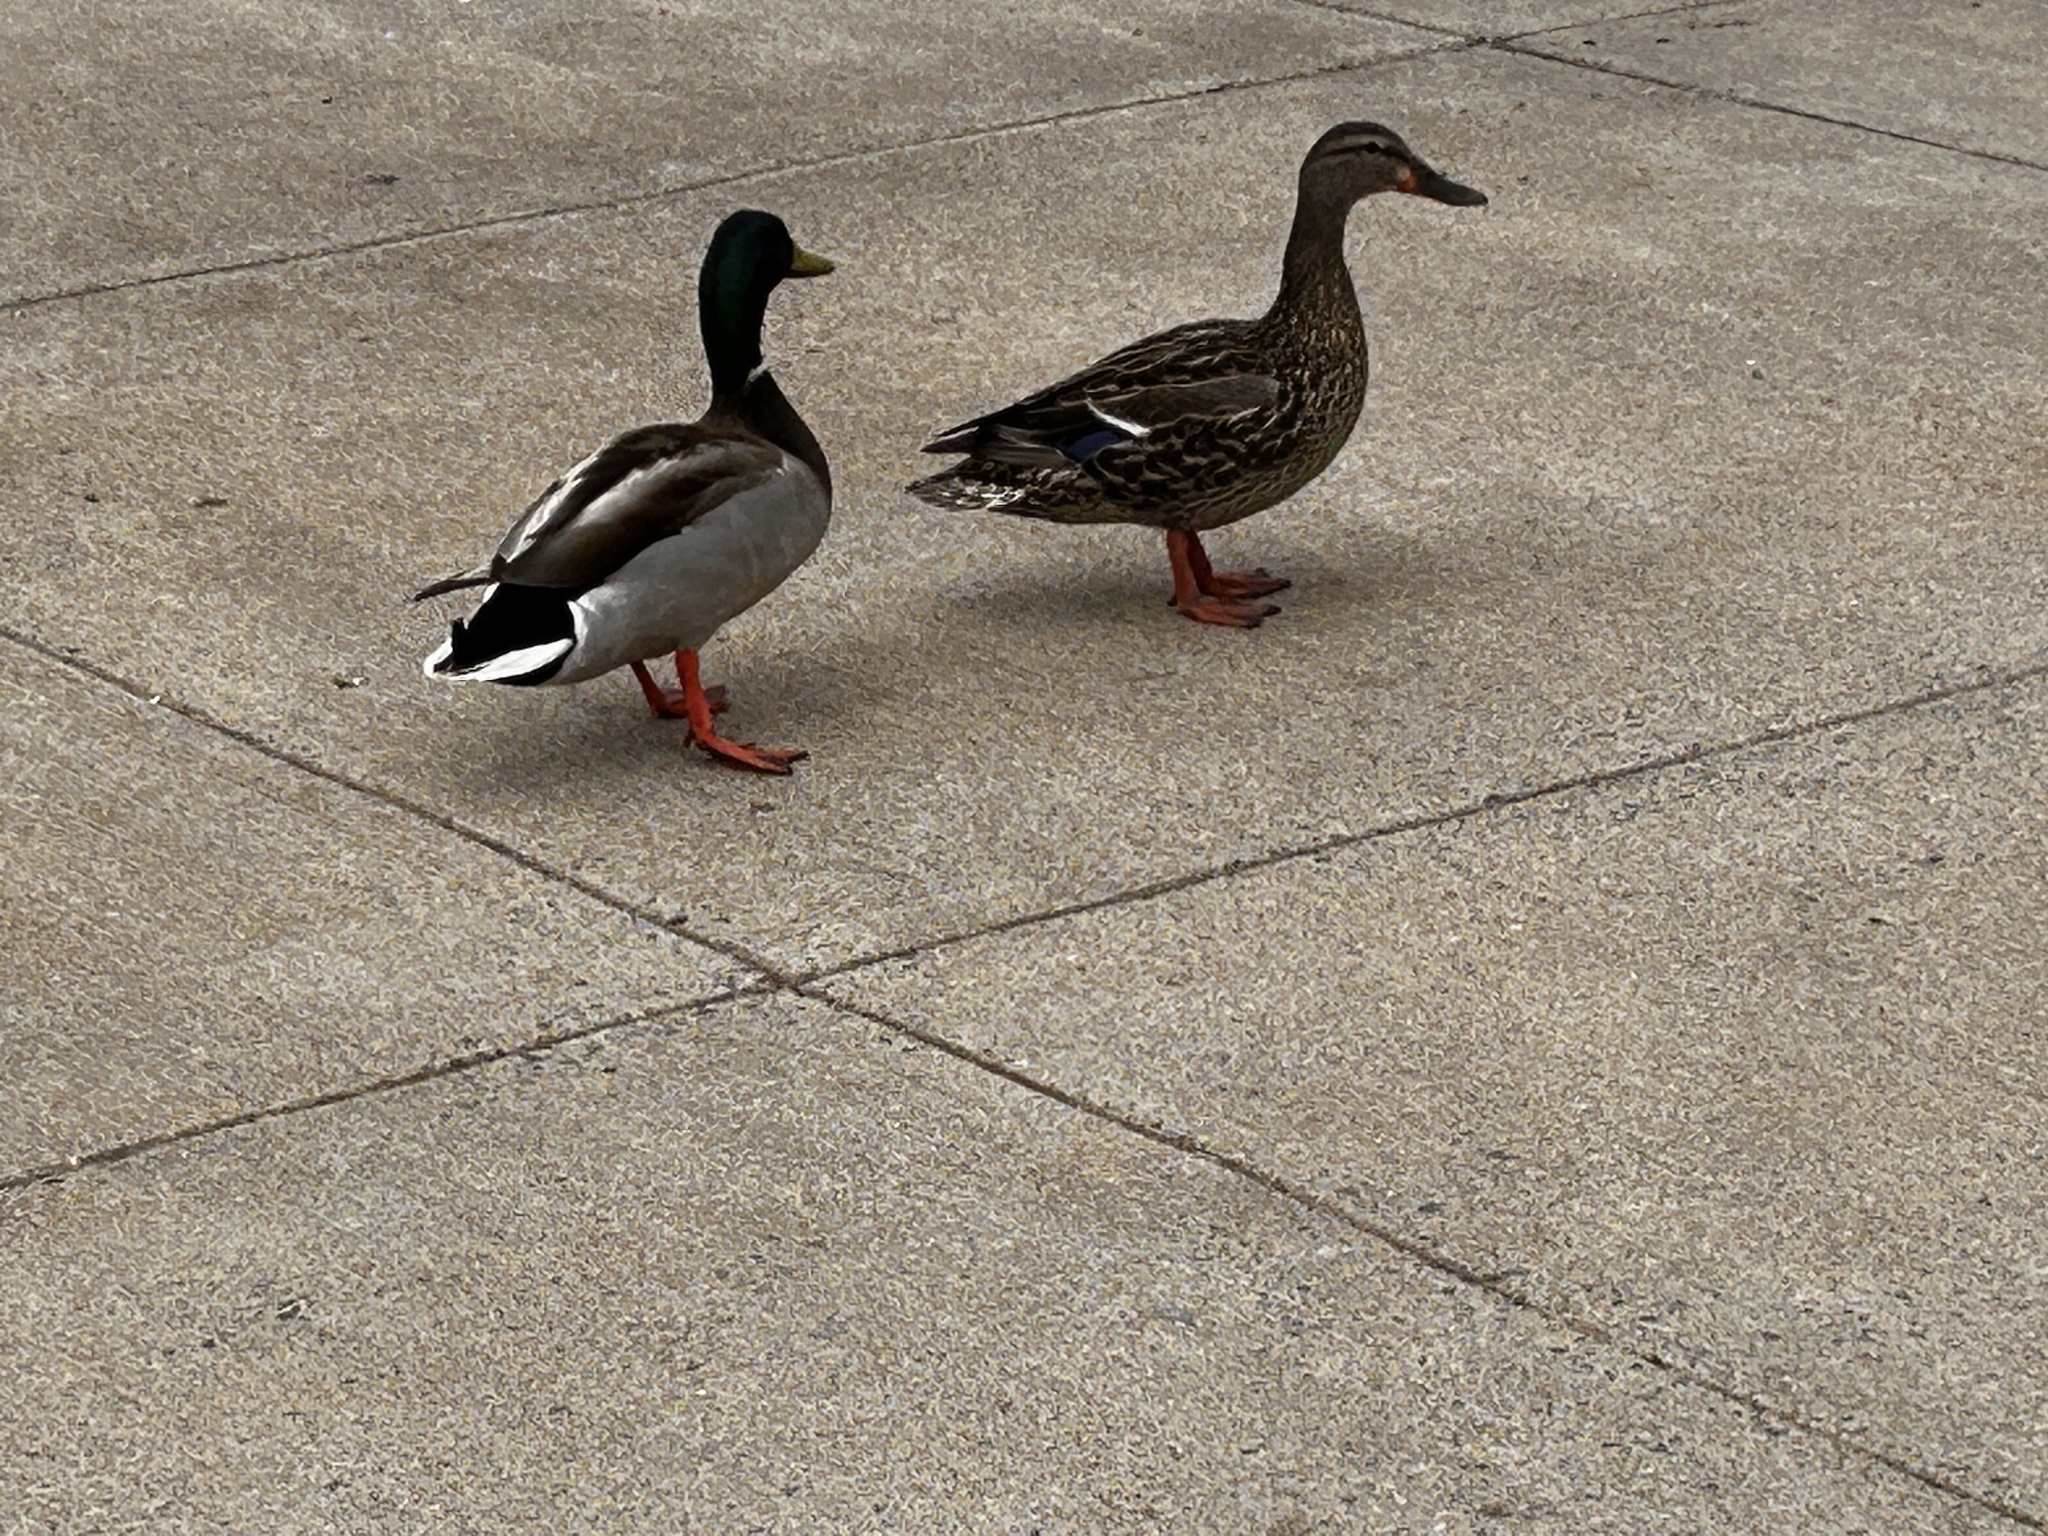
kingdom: Animalia
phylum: Chordata
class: Aves
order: Anseriformes
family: Anatidae
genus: Anas
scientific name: Anas platyrhynchos
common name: Mallard
